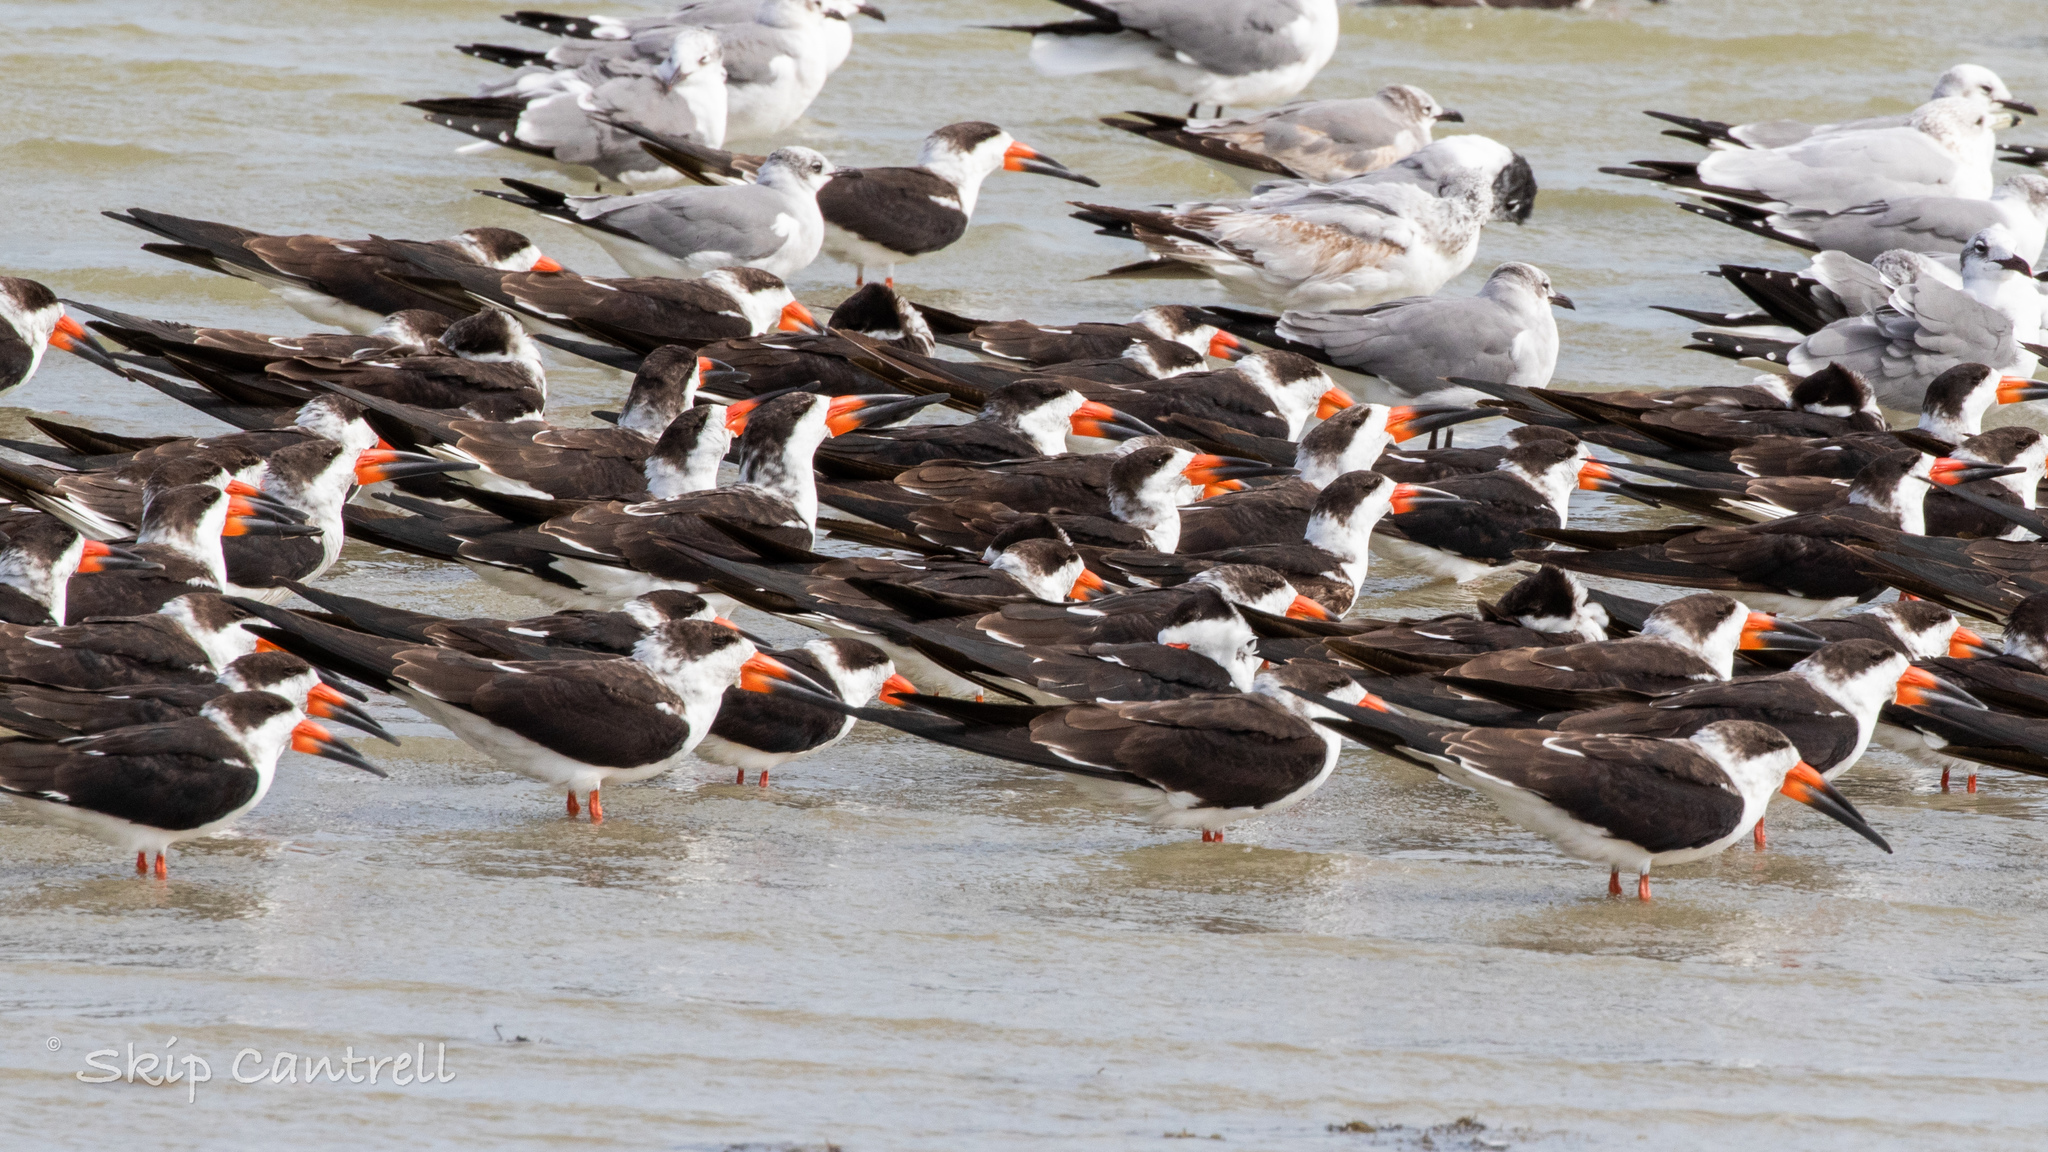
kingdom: Animalia
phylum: Chordata
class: Aves
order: Charadriiformes
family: Laridae
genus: Rynchops
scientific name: Rynchops niger
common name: Black skimmer
